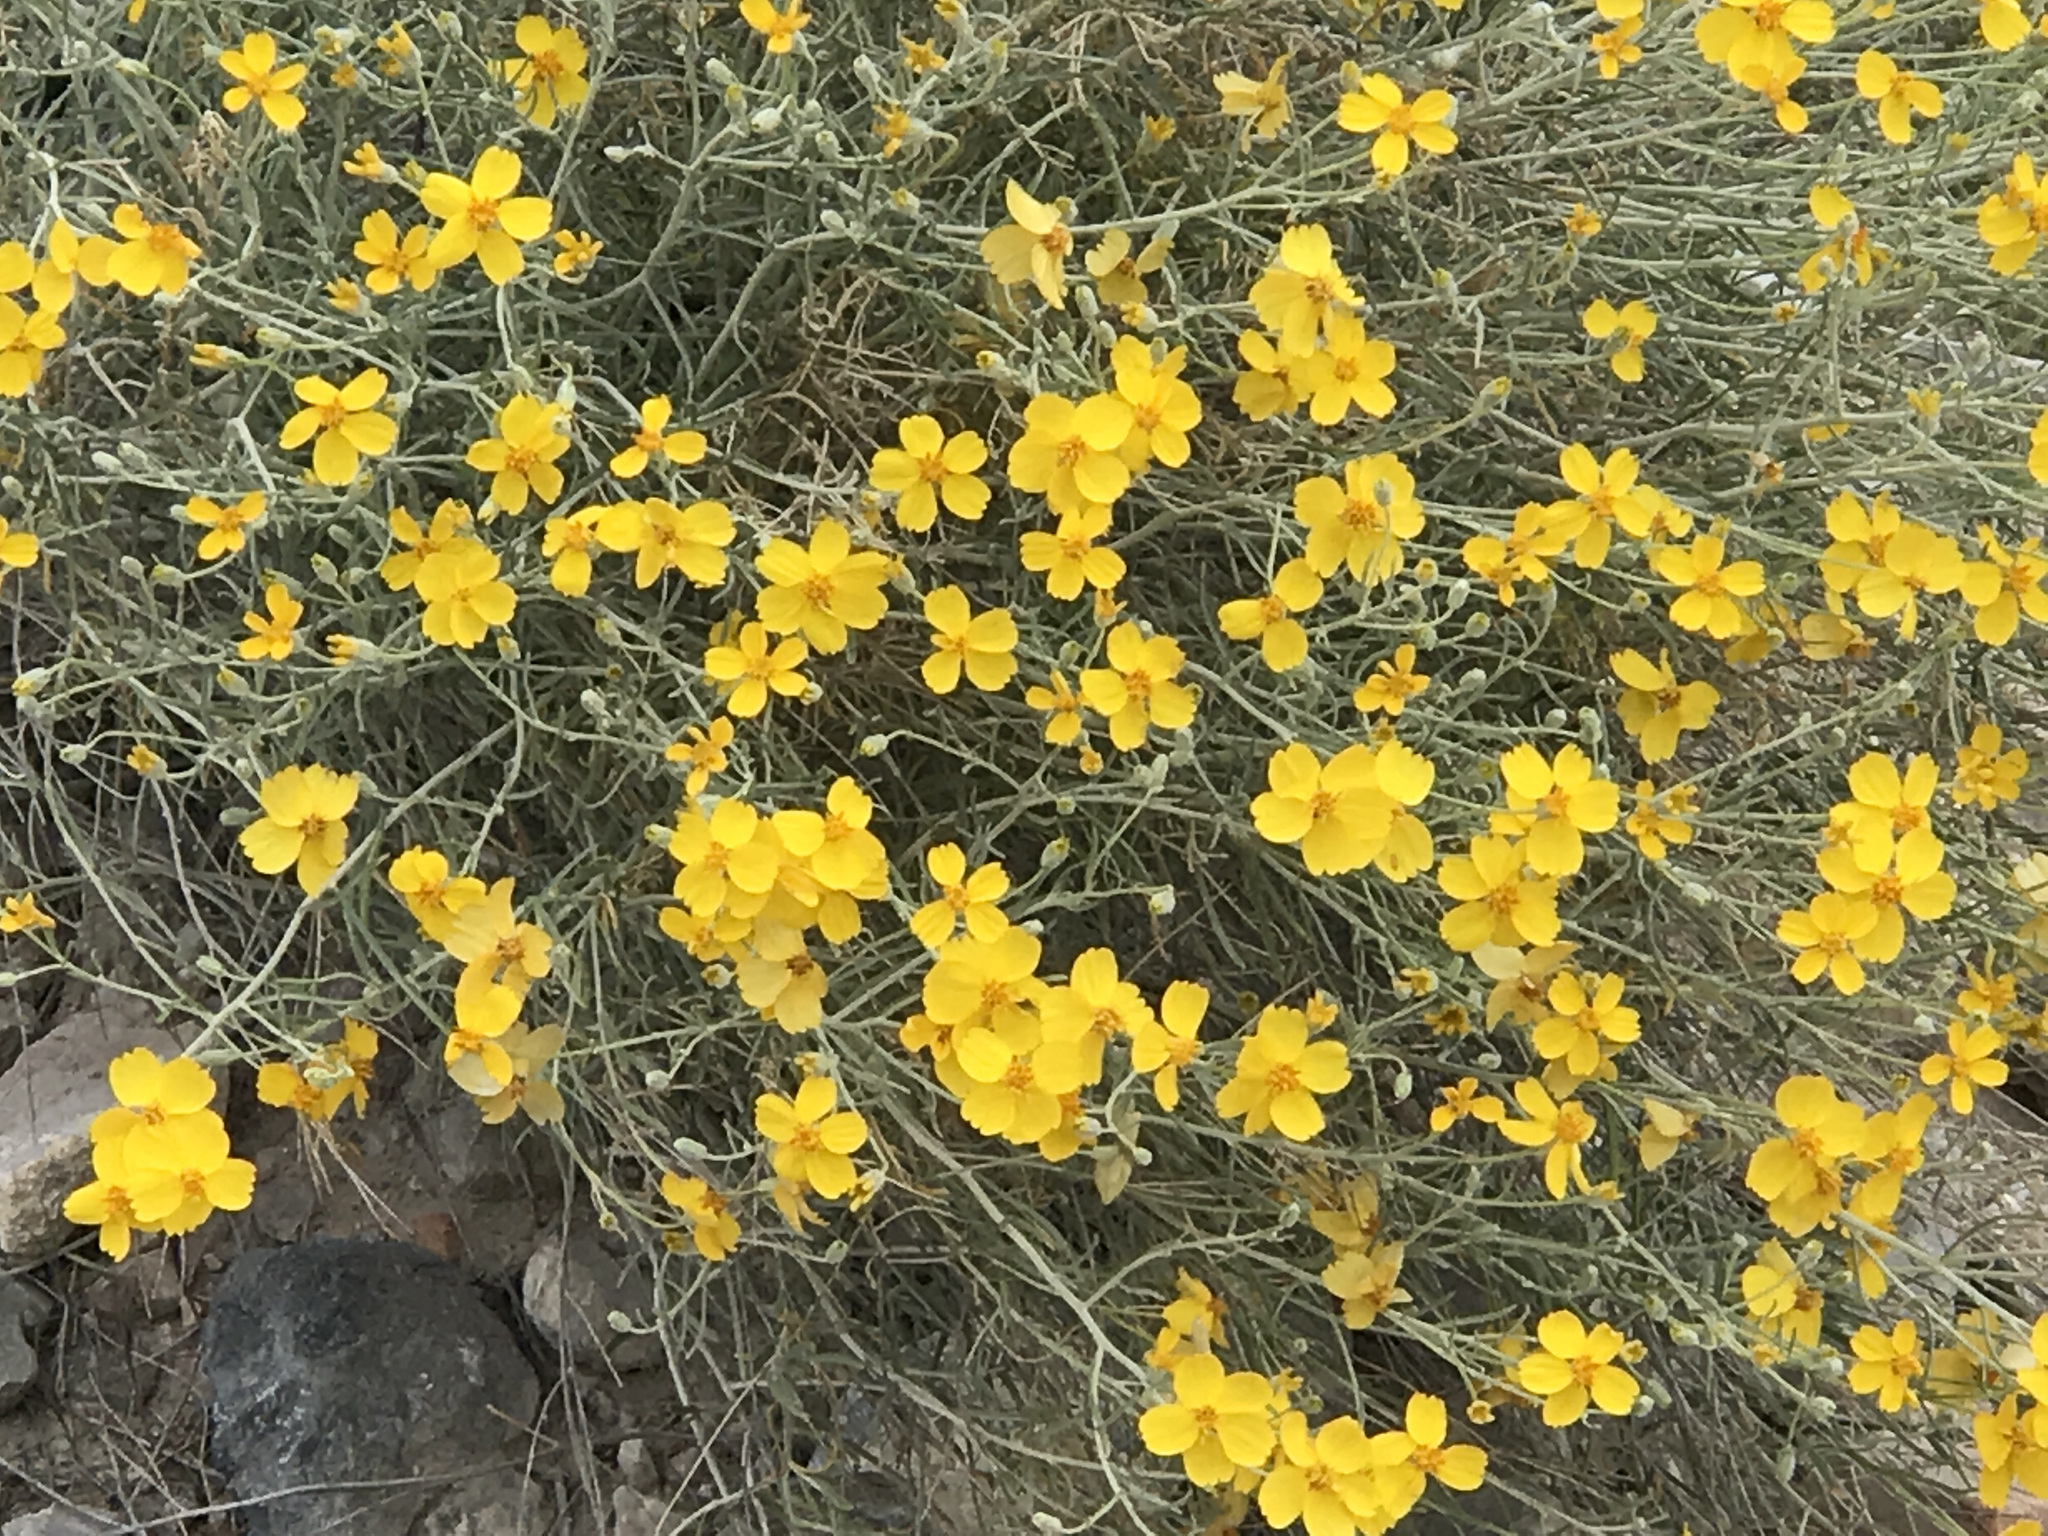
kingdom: Plantae
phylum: Tracheophyta
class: Magnoliopsida
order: Asterales
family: Asteraceae
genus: Psilostrophe
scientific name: Psilostrophe cooperi
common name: White-stem paper-flower
